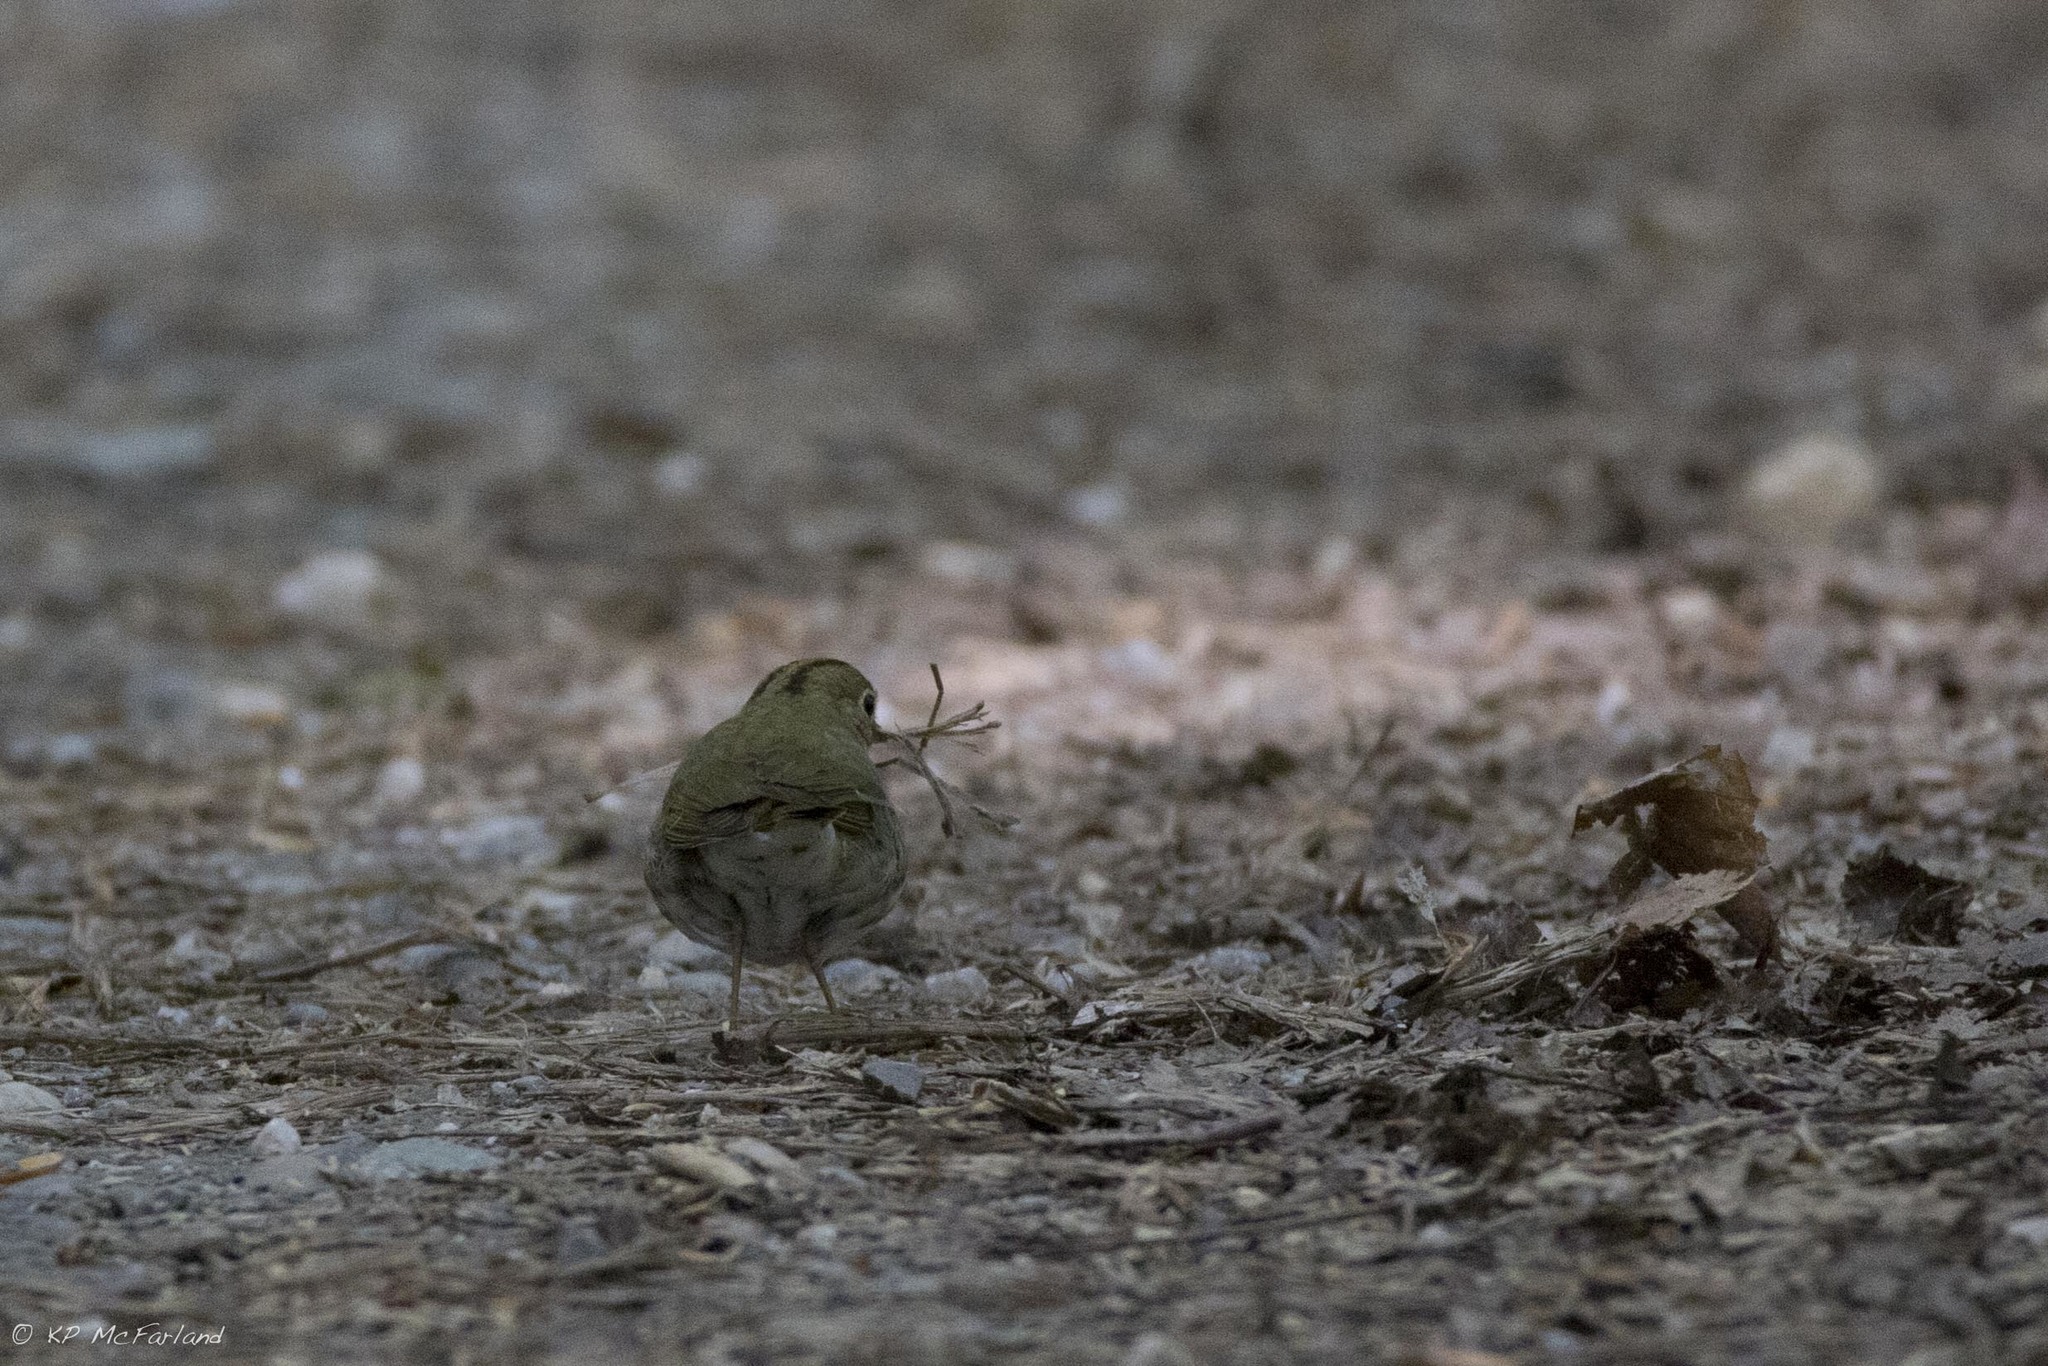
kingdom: Animalia
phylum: Chordata
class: Aves
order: Passeriformes
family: Parulidae
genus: Seiurus
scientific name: Seiurus aurocapilla
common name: Ovenbird
